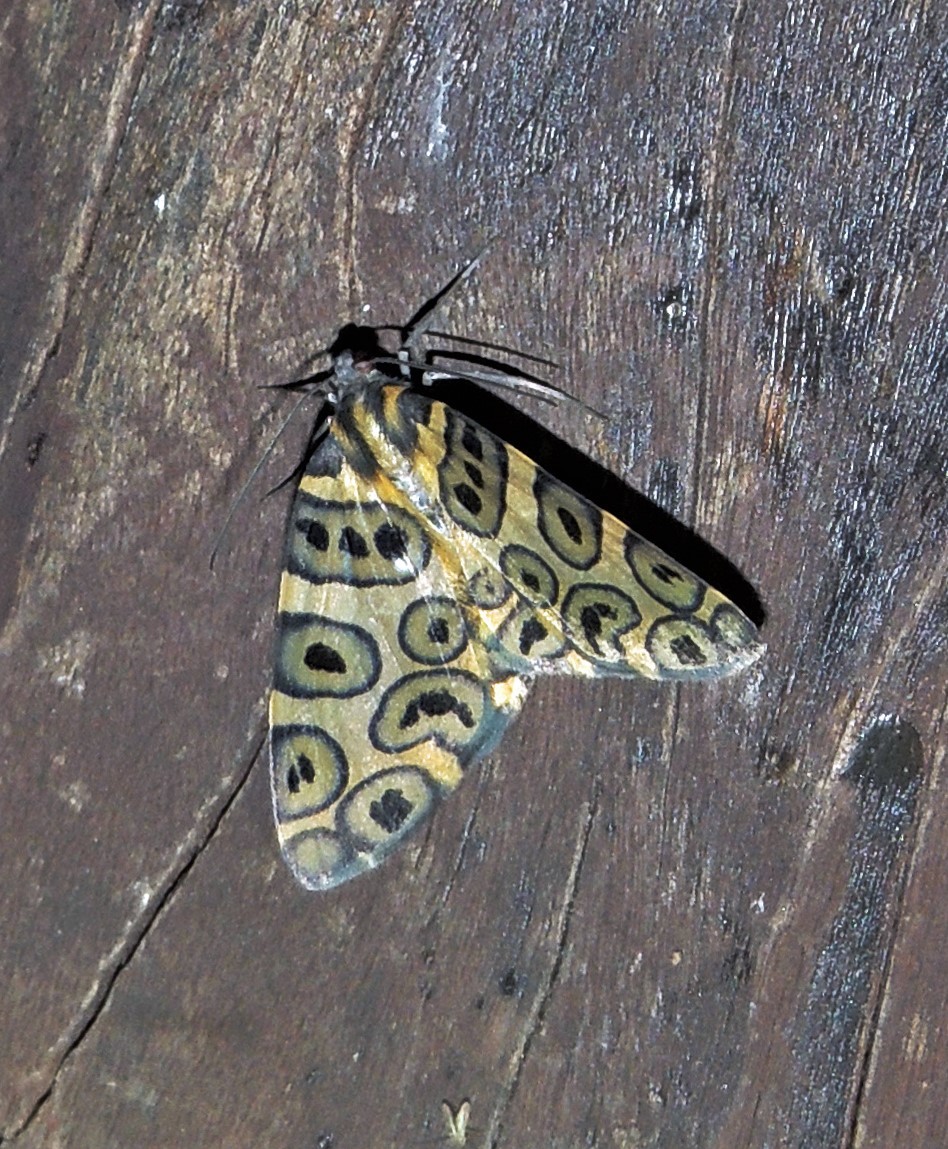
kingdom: Animalia
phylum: Arthropoda
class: Insecta
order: Lepidoptera
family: Geometridae
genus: Pantherodes
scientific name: Pantherodes pardalaria
